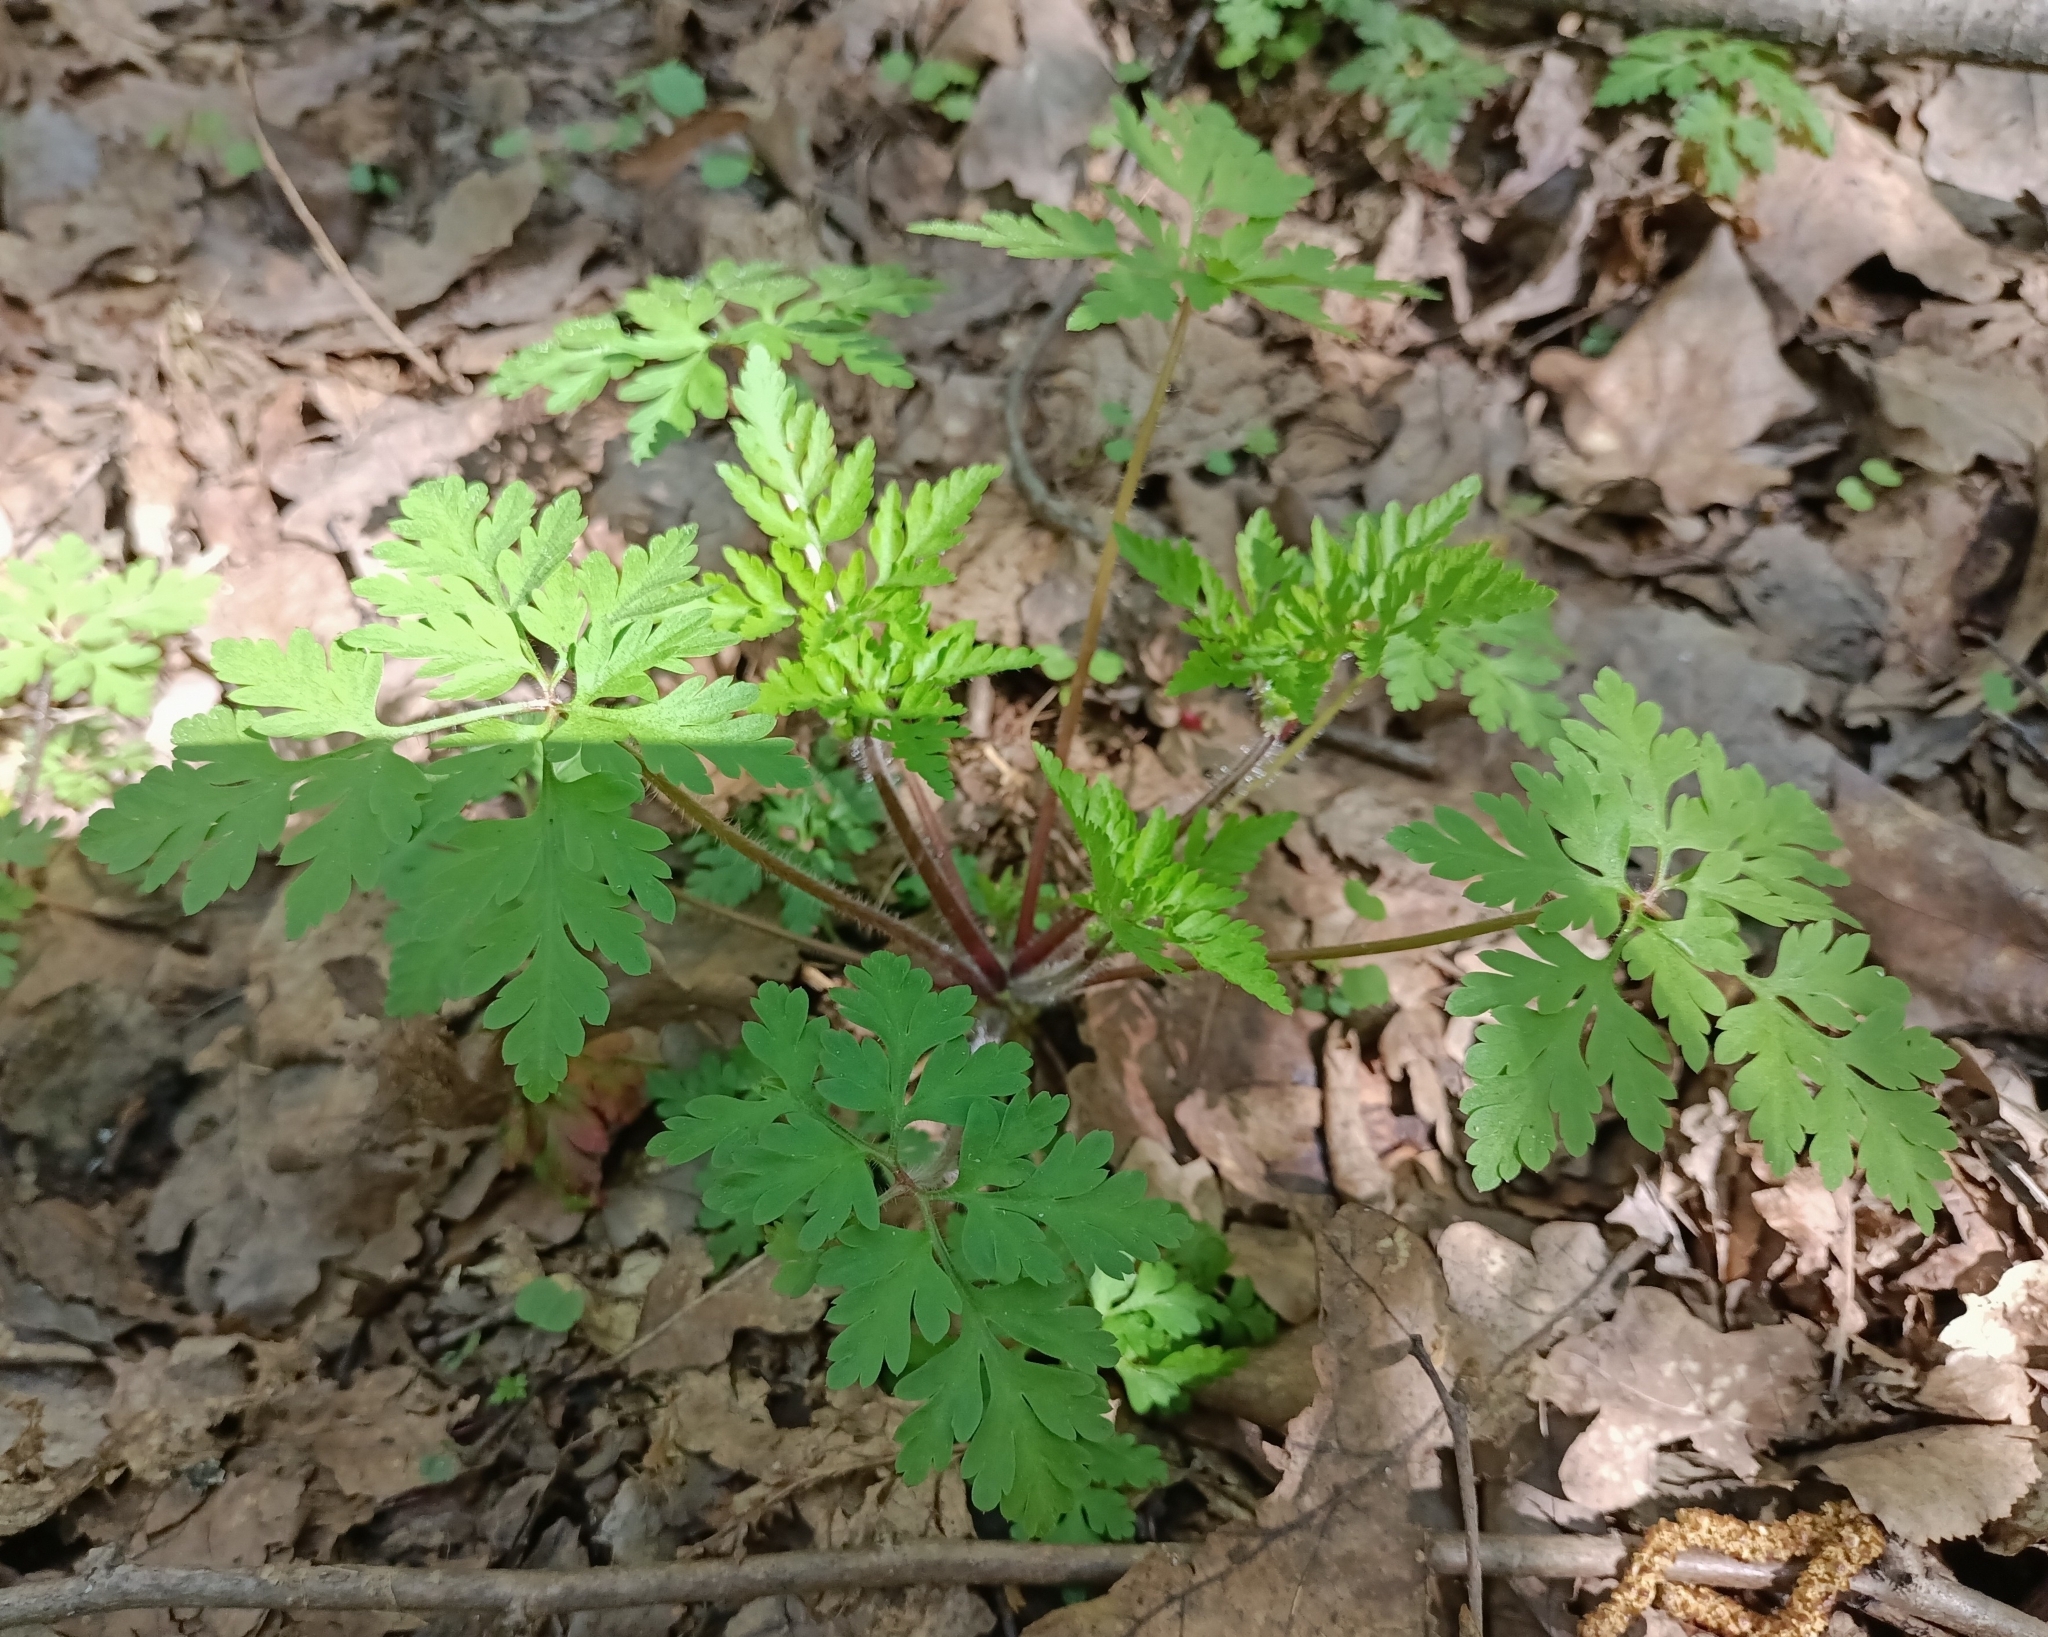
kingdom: Plantae
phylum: Tracheophyta
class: Magnoliopsida
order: Geraniales
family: Geraniaceae
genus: Geranium
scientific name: Geranium robertianum
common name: Herb-robert
